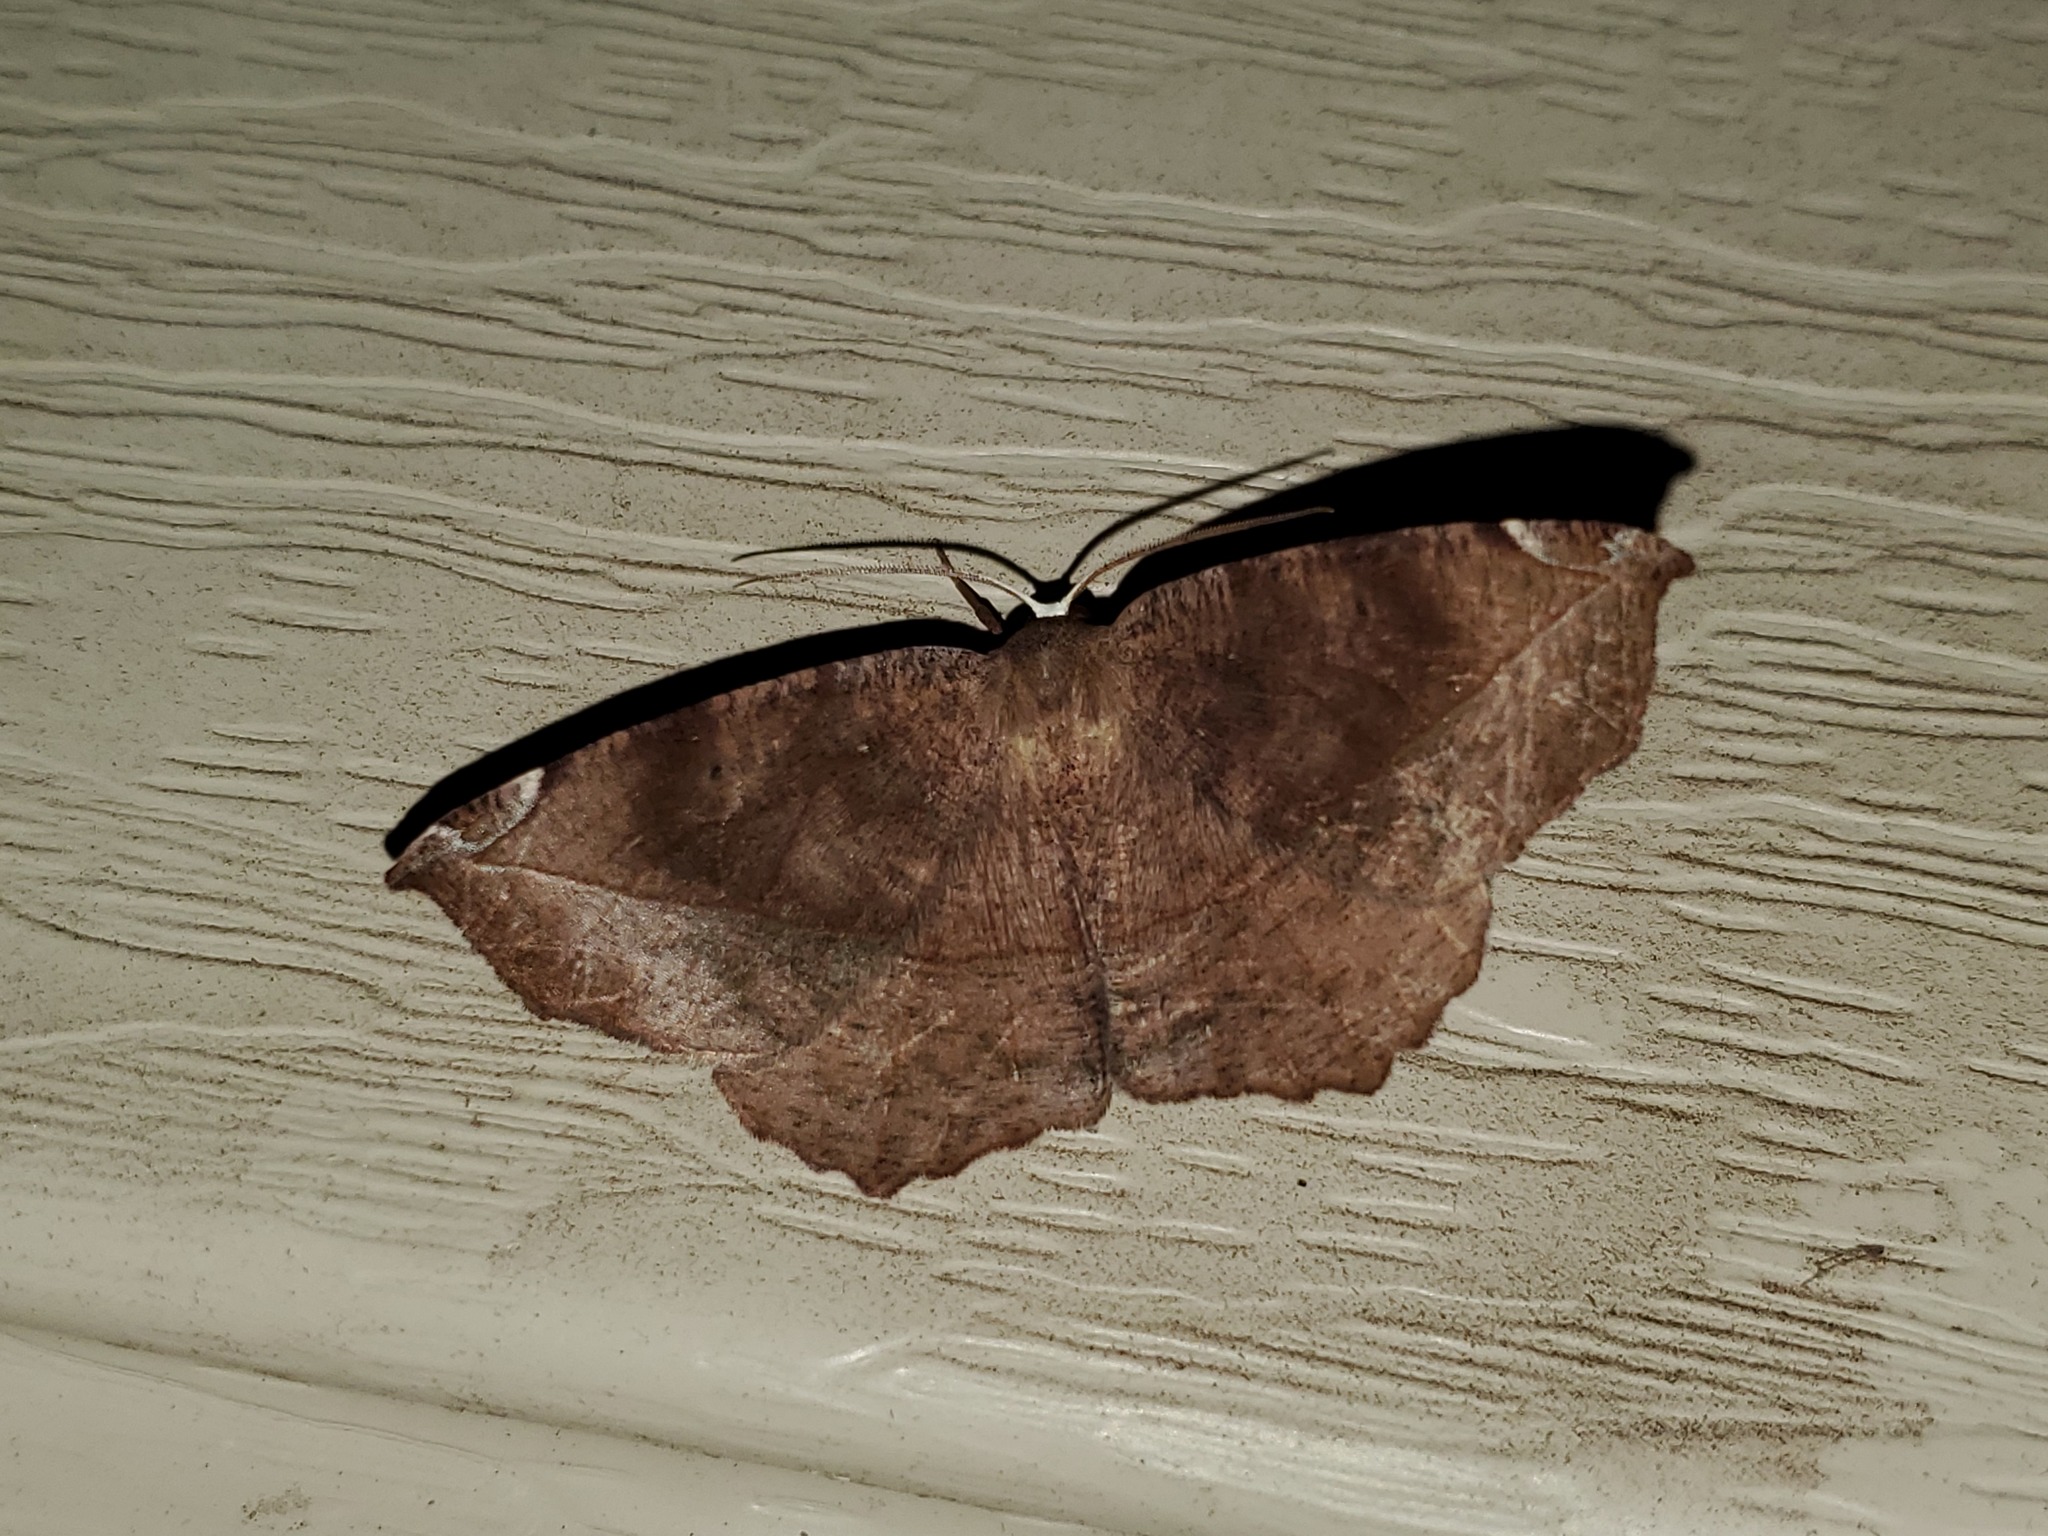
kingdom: Animalia
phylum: Arthropoda
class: Insecta
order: Lepidoptera
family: Geometridae
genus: Eutrapela
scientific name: Eutrapela clemataria
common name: Curved-toothed geometer
